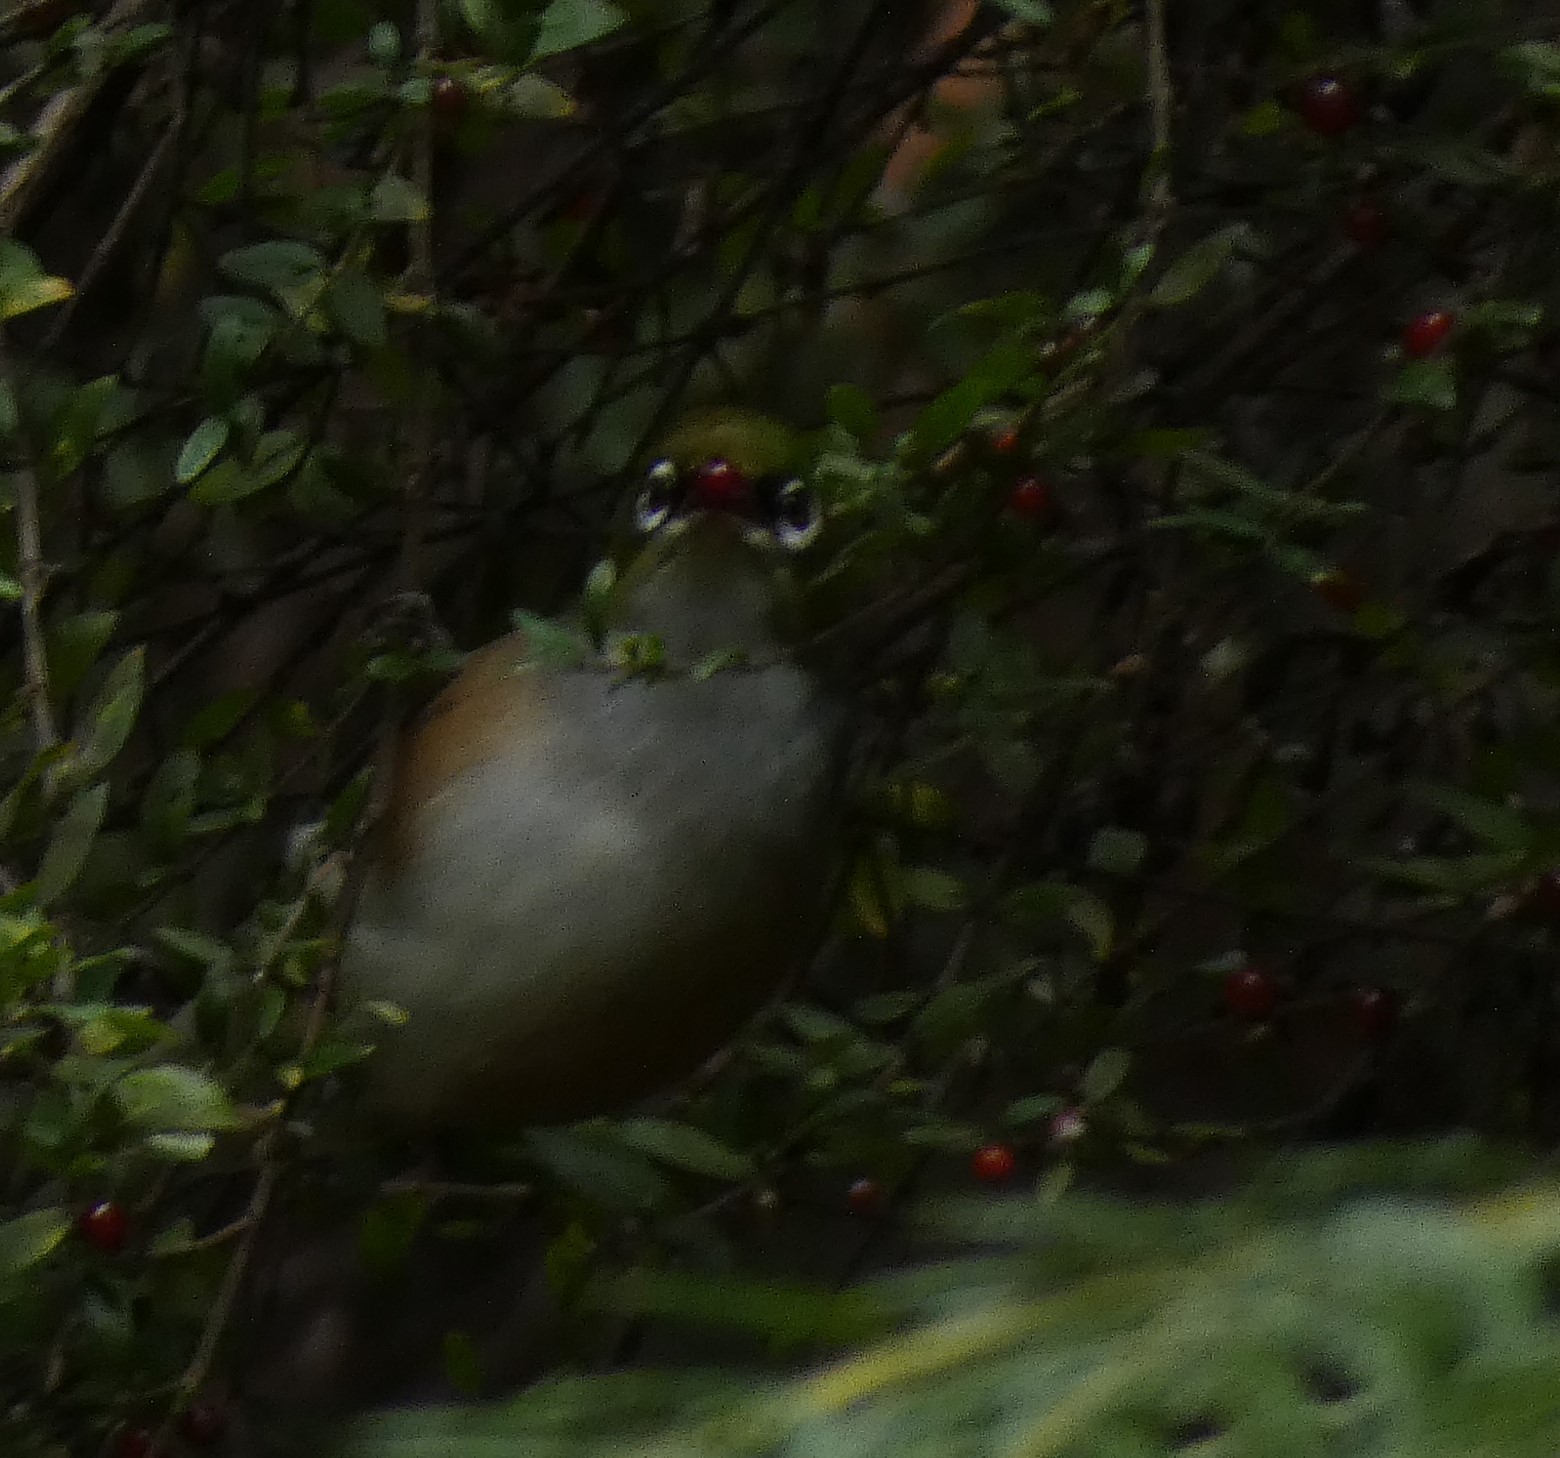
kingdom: Animalia
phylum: Chordata
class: Aves
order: Passeriformes
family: Zosteropidae
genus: Zosterops
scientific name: Zosterops lateralis
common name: Silvereye
